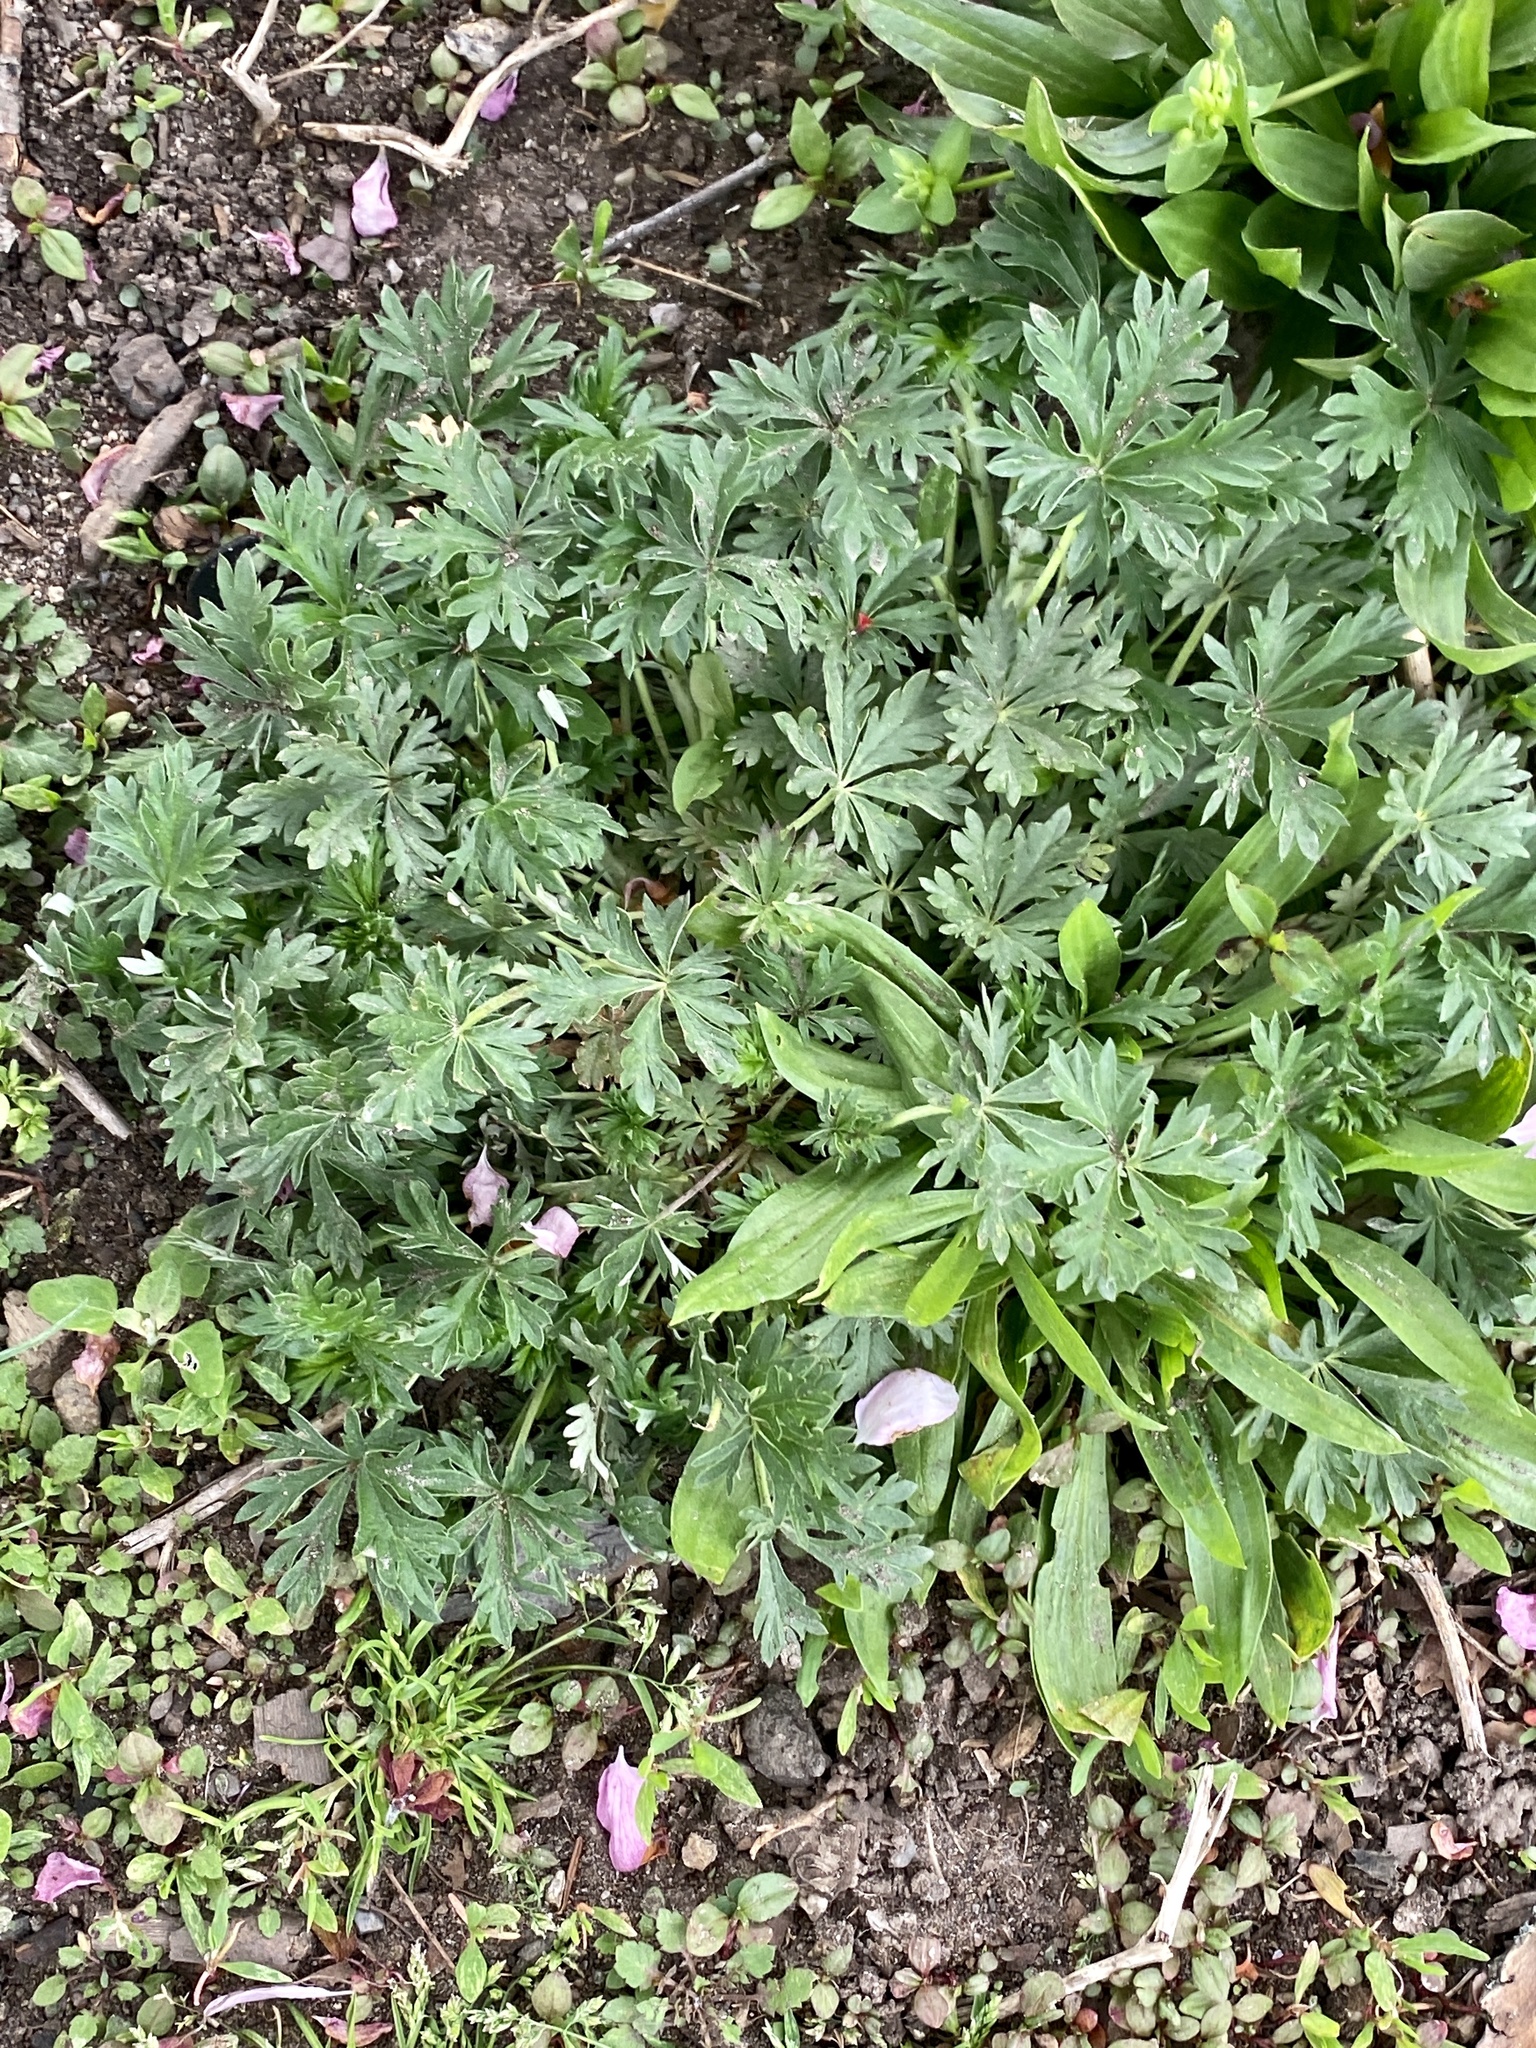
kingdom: Plantae
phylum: Tracheophyta
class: Magnoliopsida
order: Rosales
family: Rosaceae
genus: Potentilla
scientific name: Potentilla argentea
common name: Hoary cinquefoil
